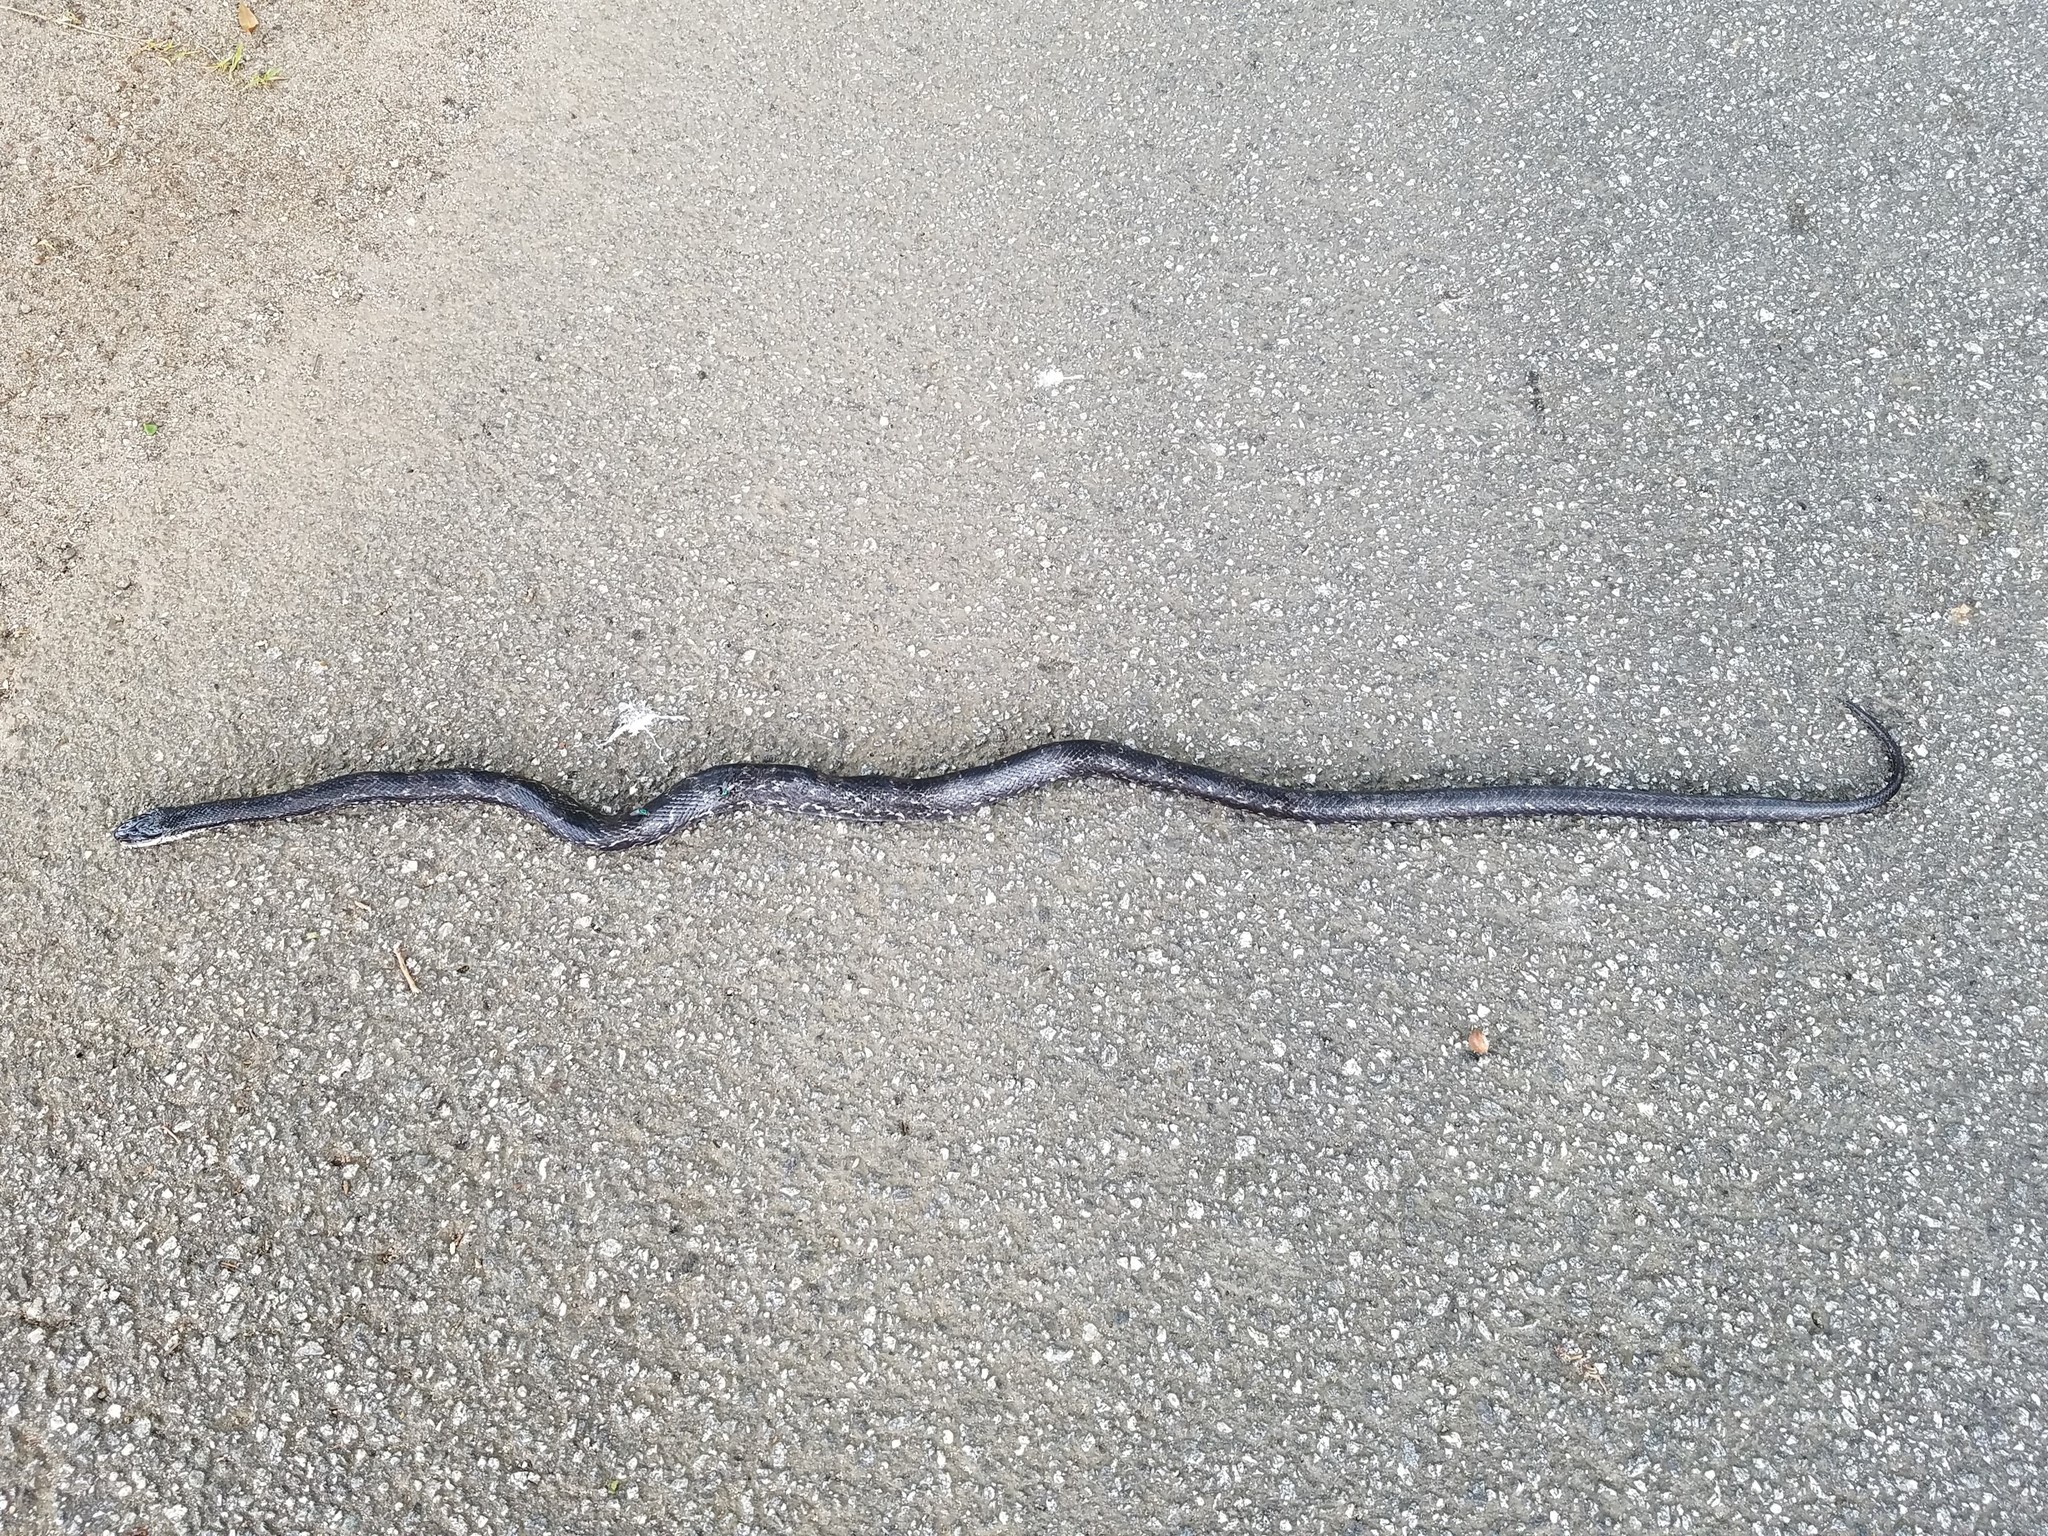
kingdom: Animalia
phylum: Chordata
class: Squamata
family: Colubridae
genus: Pantherophis
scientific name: Pantherophis alleghaniensis
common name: Eastern rat snake
